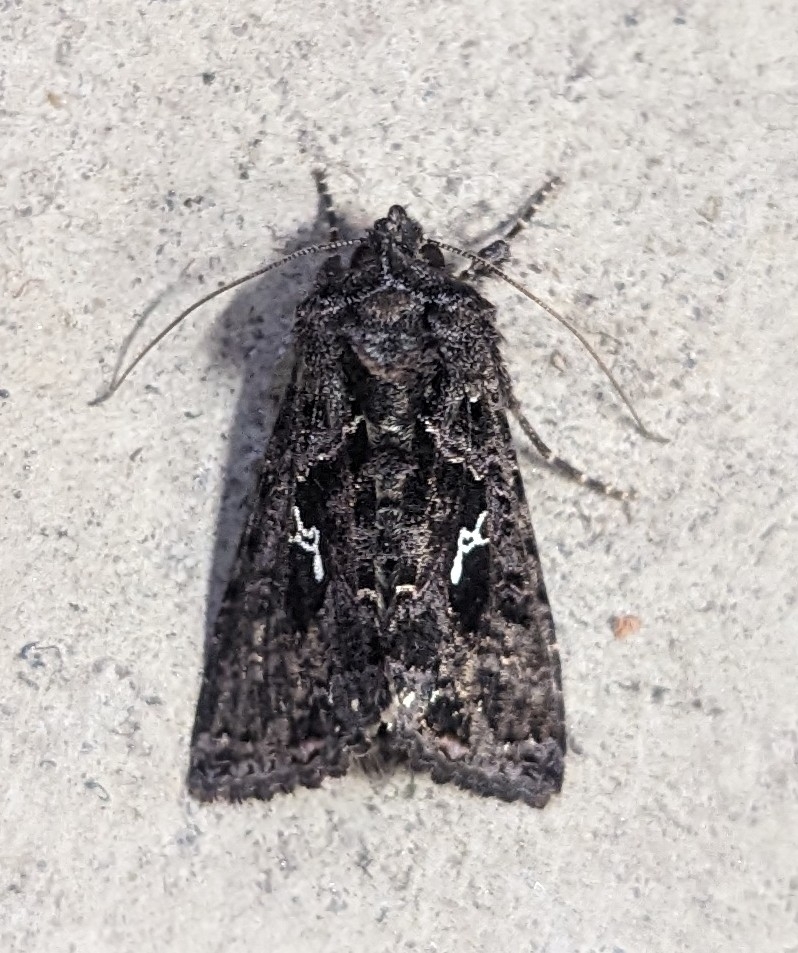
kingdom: Animalia
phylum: Arthropoda
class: Insecta
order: Lepidoptera
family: Noctuidae
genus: Ctenoplusia
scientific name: Ctenoplusia limbirena
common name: Scar bank gem
